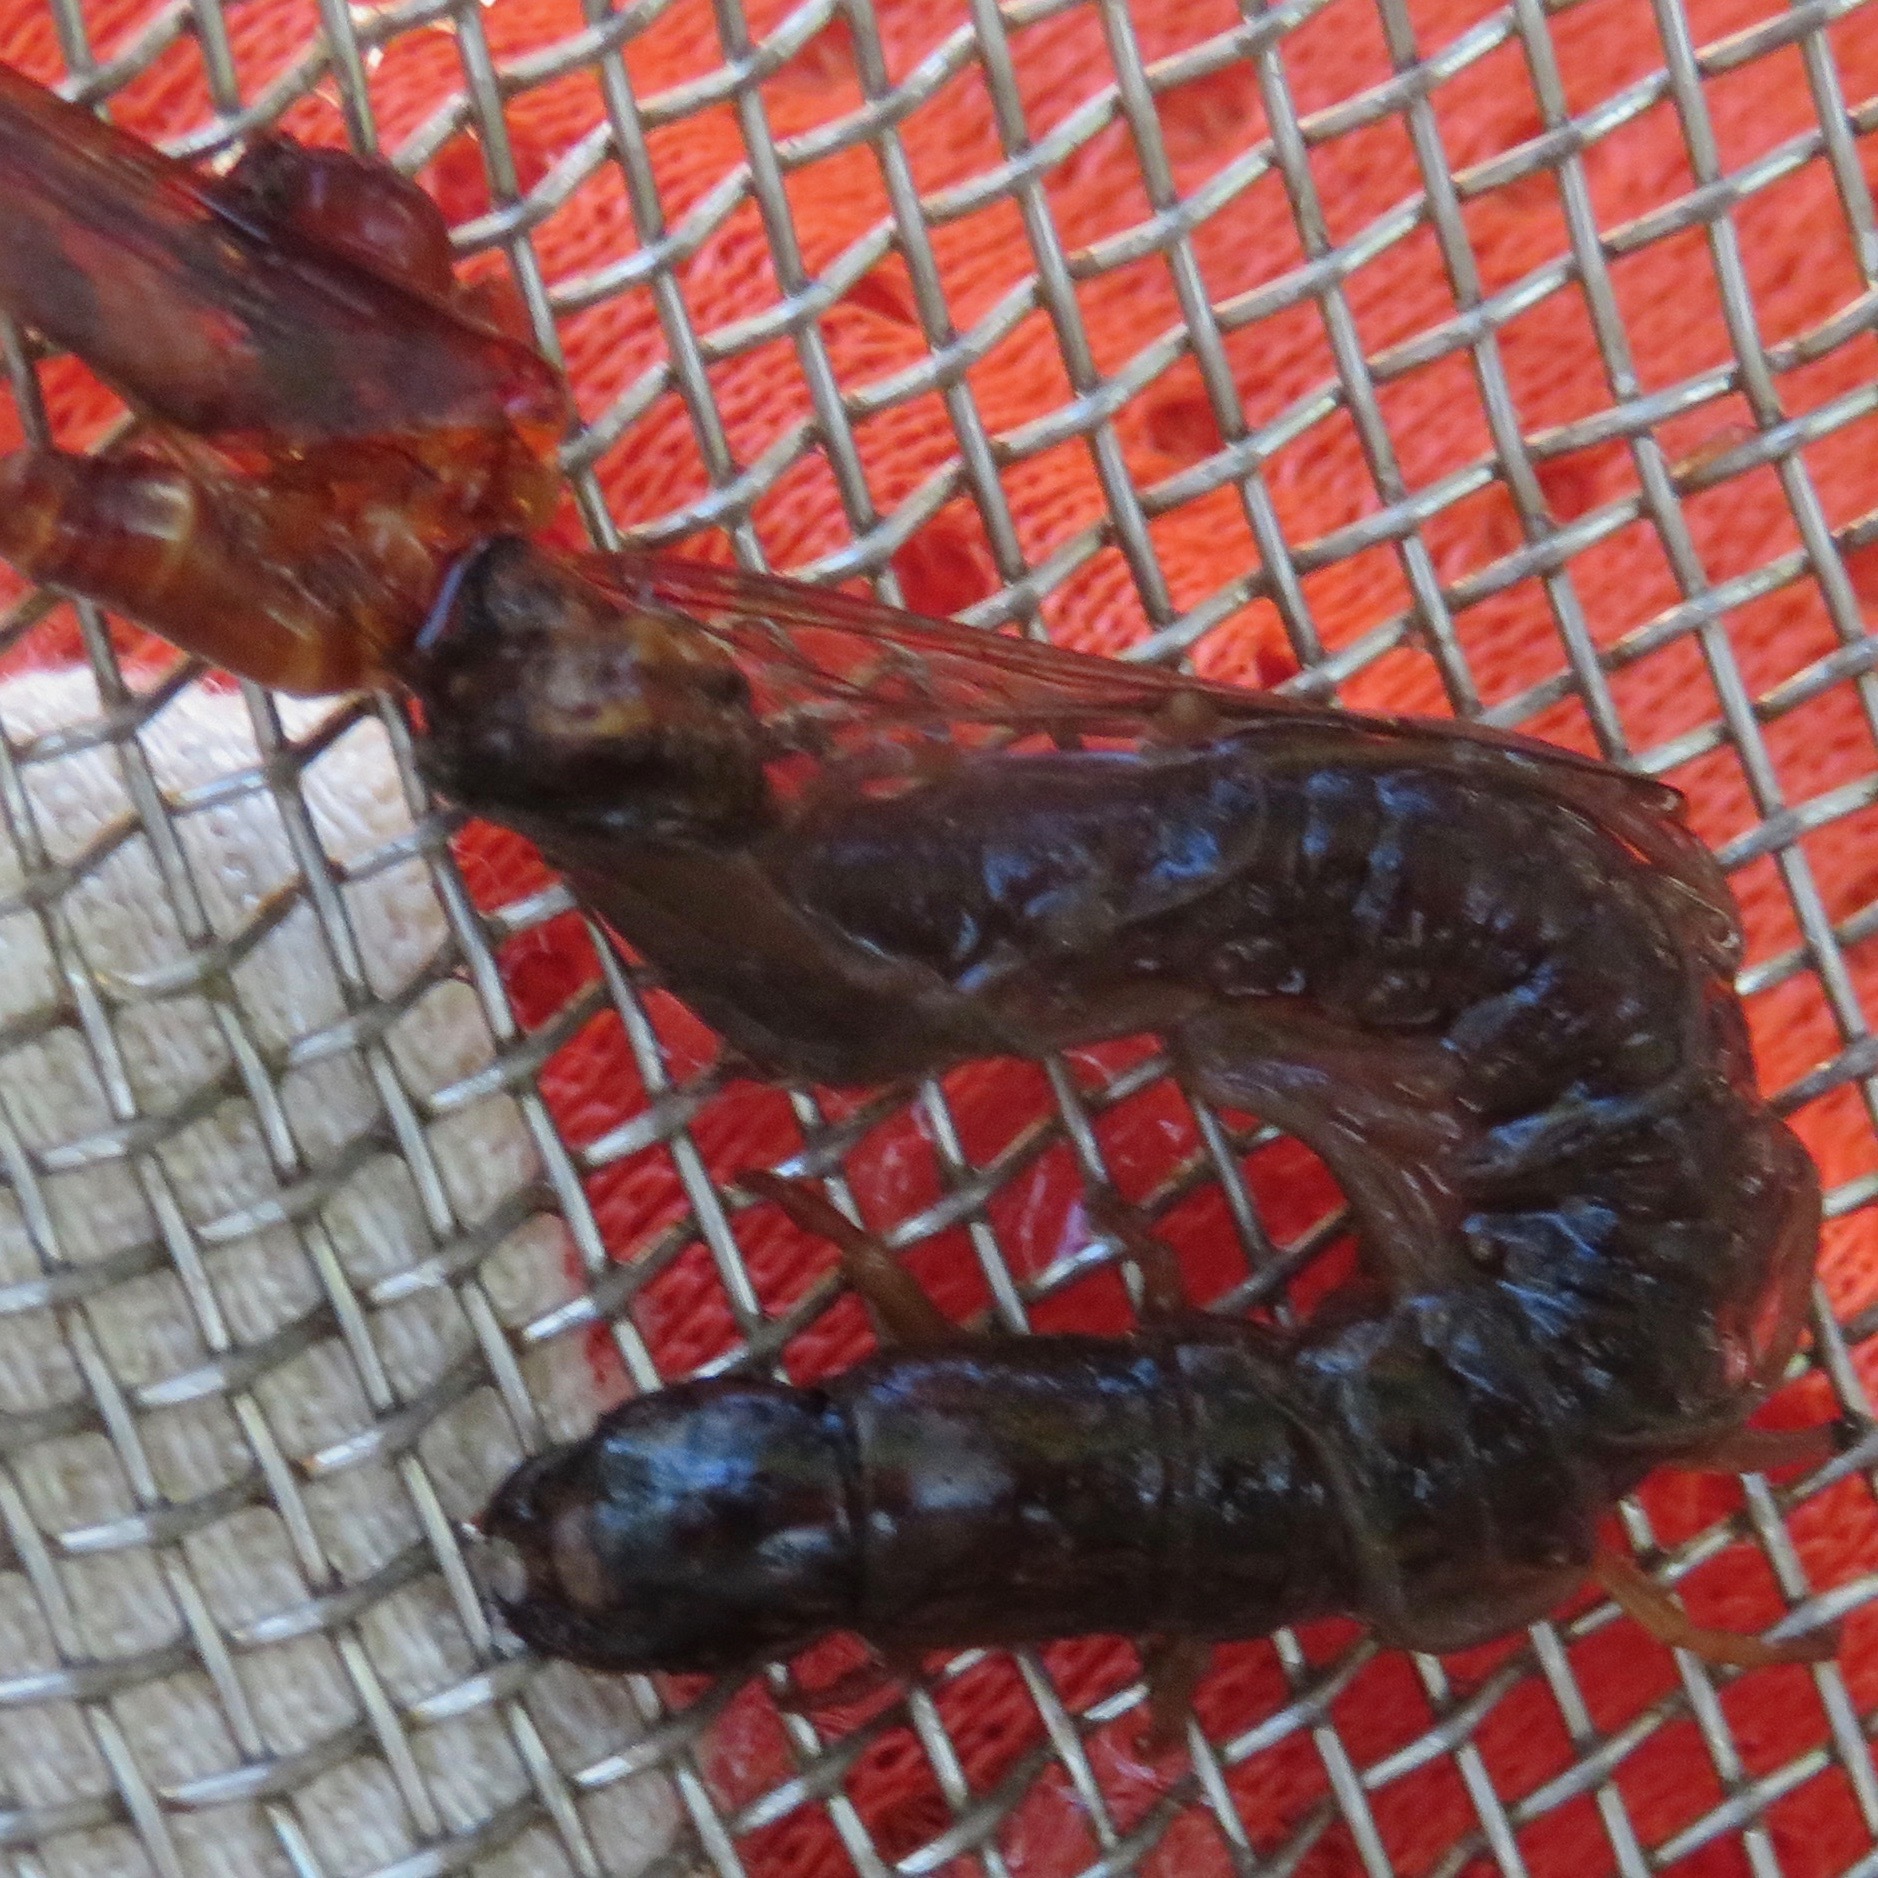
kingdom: Animalia
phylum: Arthropoda
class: Insecta
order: Megaloptera
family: Corydalidae
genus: Neohermes
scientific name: Neohermes filicornis
